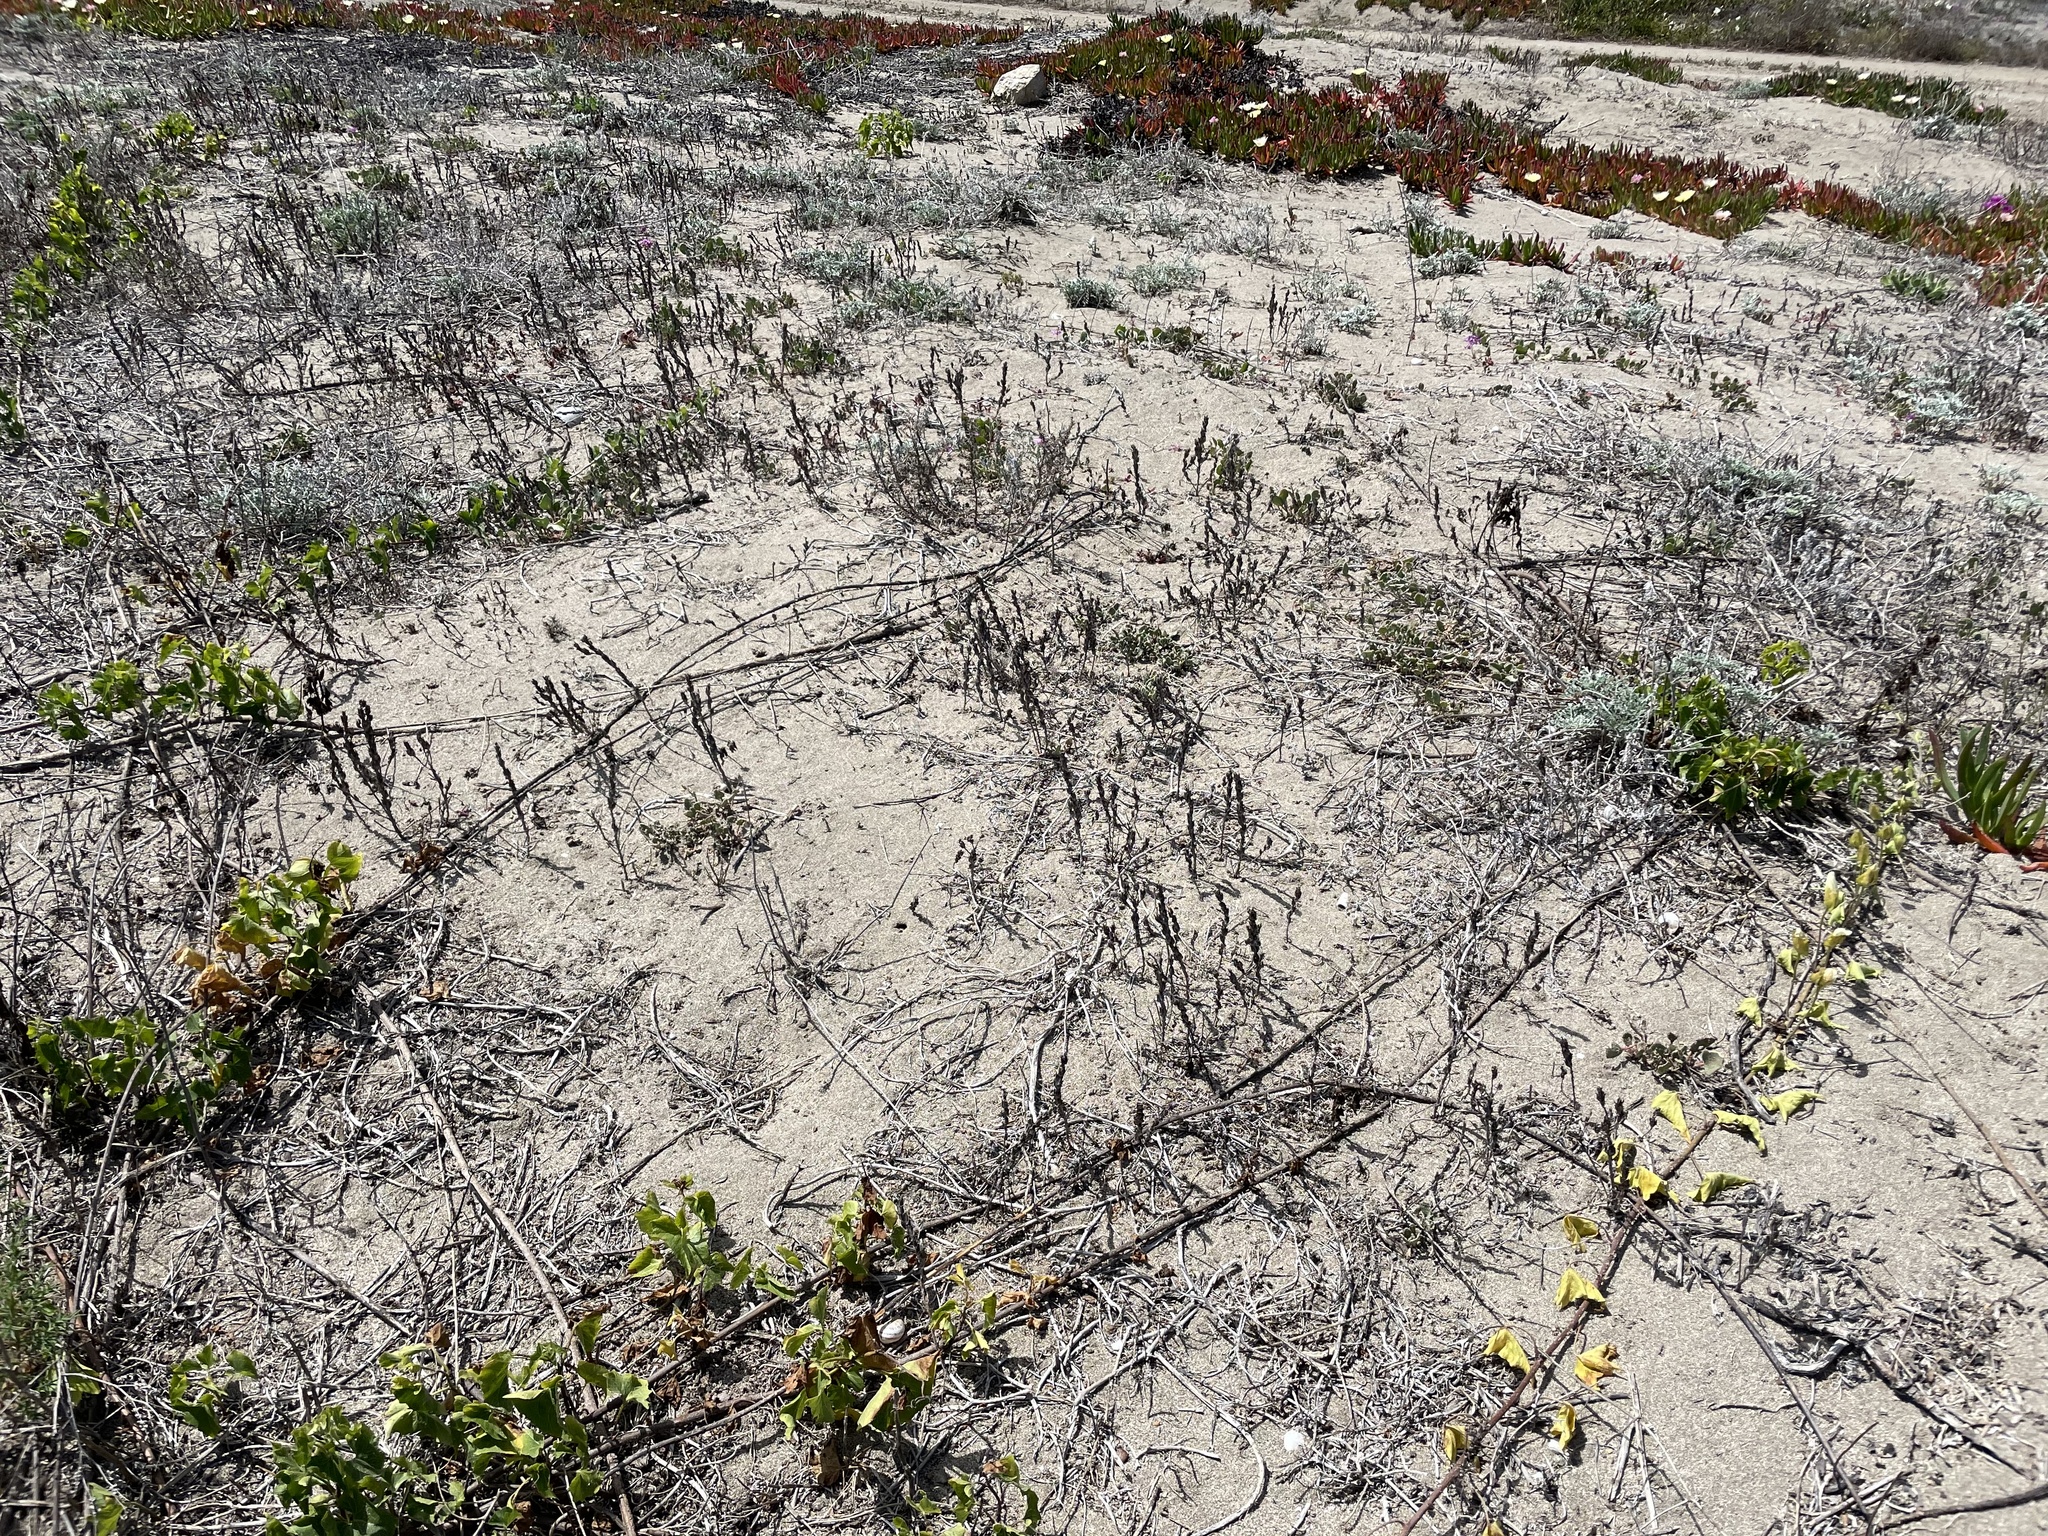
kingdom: Plantae
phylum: Tracheophyta
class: Magnoliopsida
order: Myrtales
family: Onagraceae
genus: Camissoniopsis
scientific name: Camissoniopsis guadalupensis
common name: Guadalupe suncup
